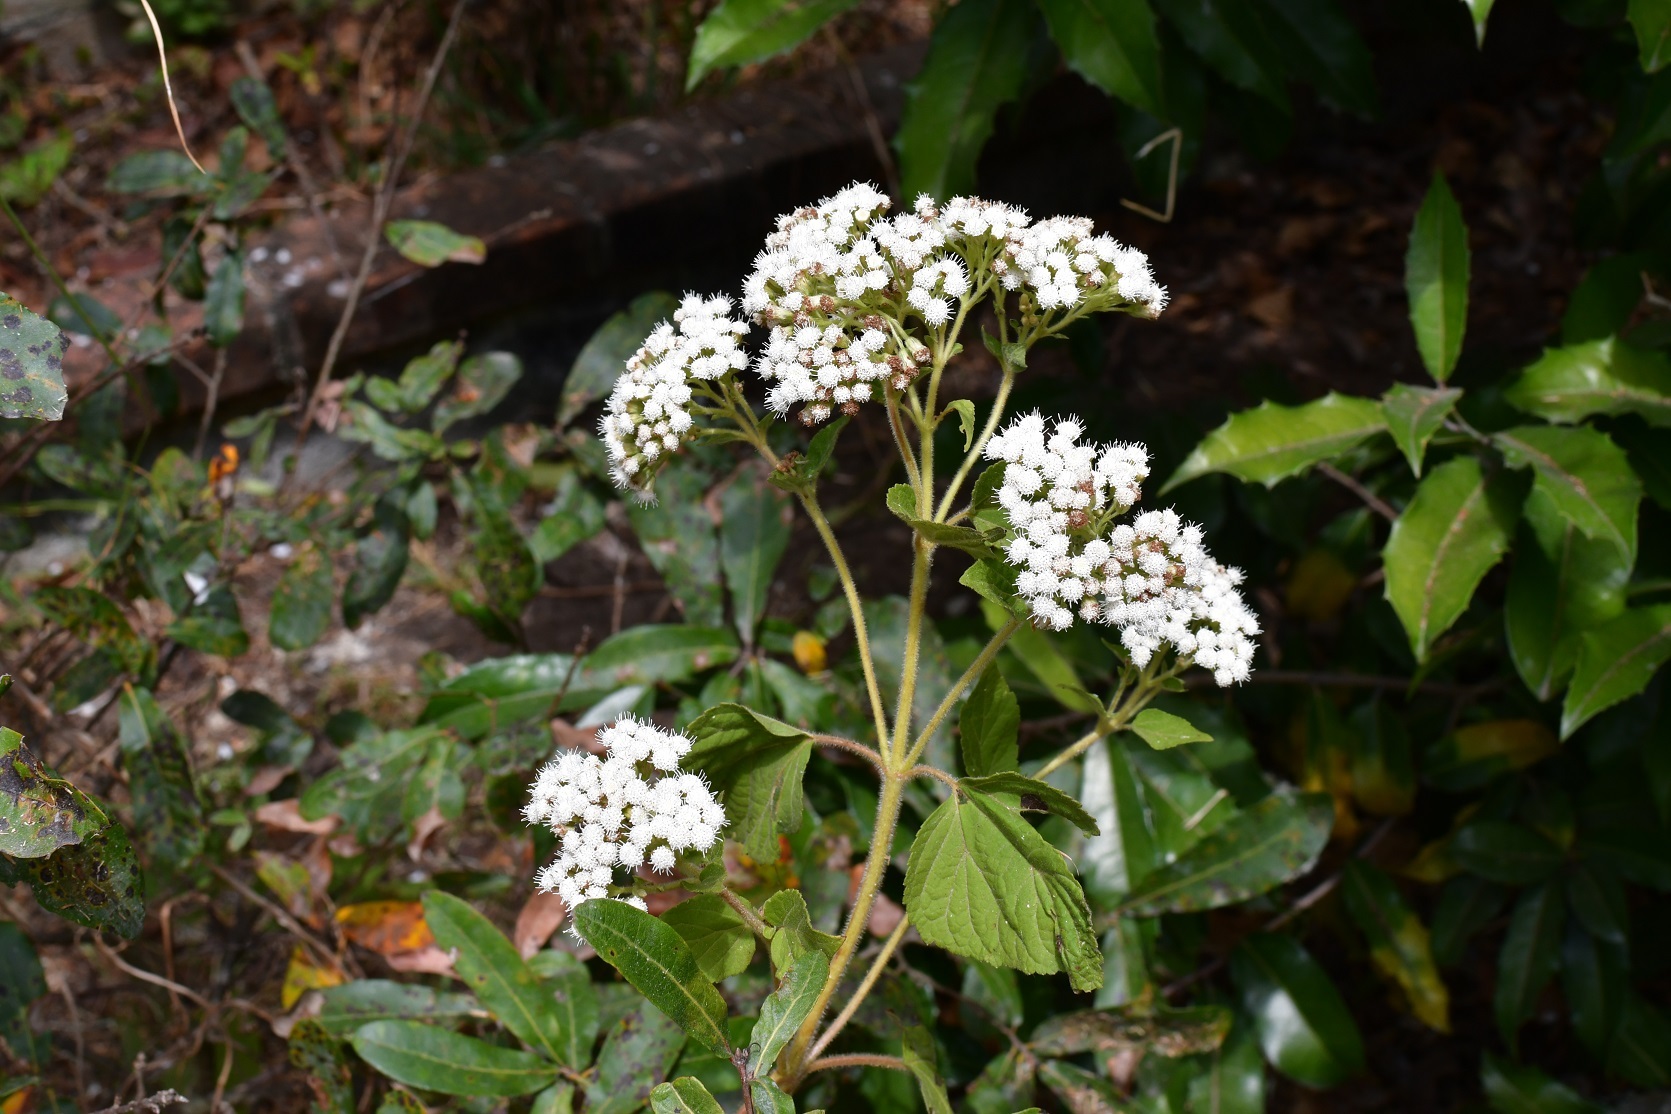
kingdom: Plantae
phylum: Tracheophyta
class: Magnoliopsida
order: Asterales
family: Asteraceae
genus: Ageratina
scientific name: Ageratina adenophora
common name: Sticky snakeroot
